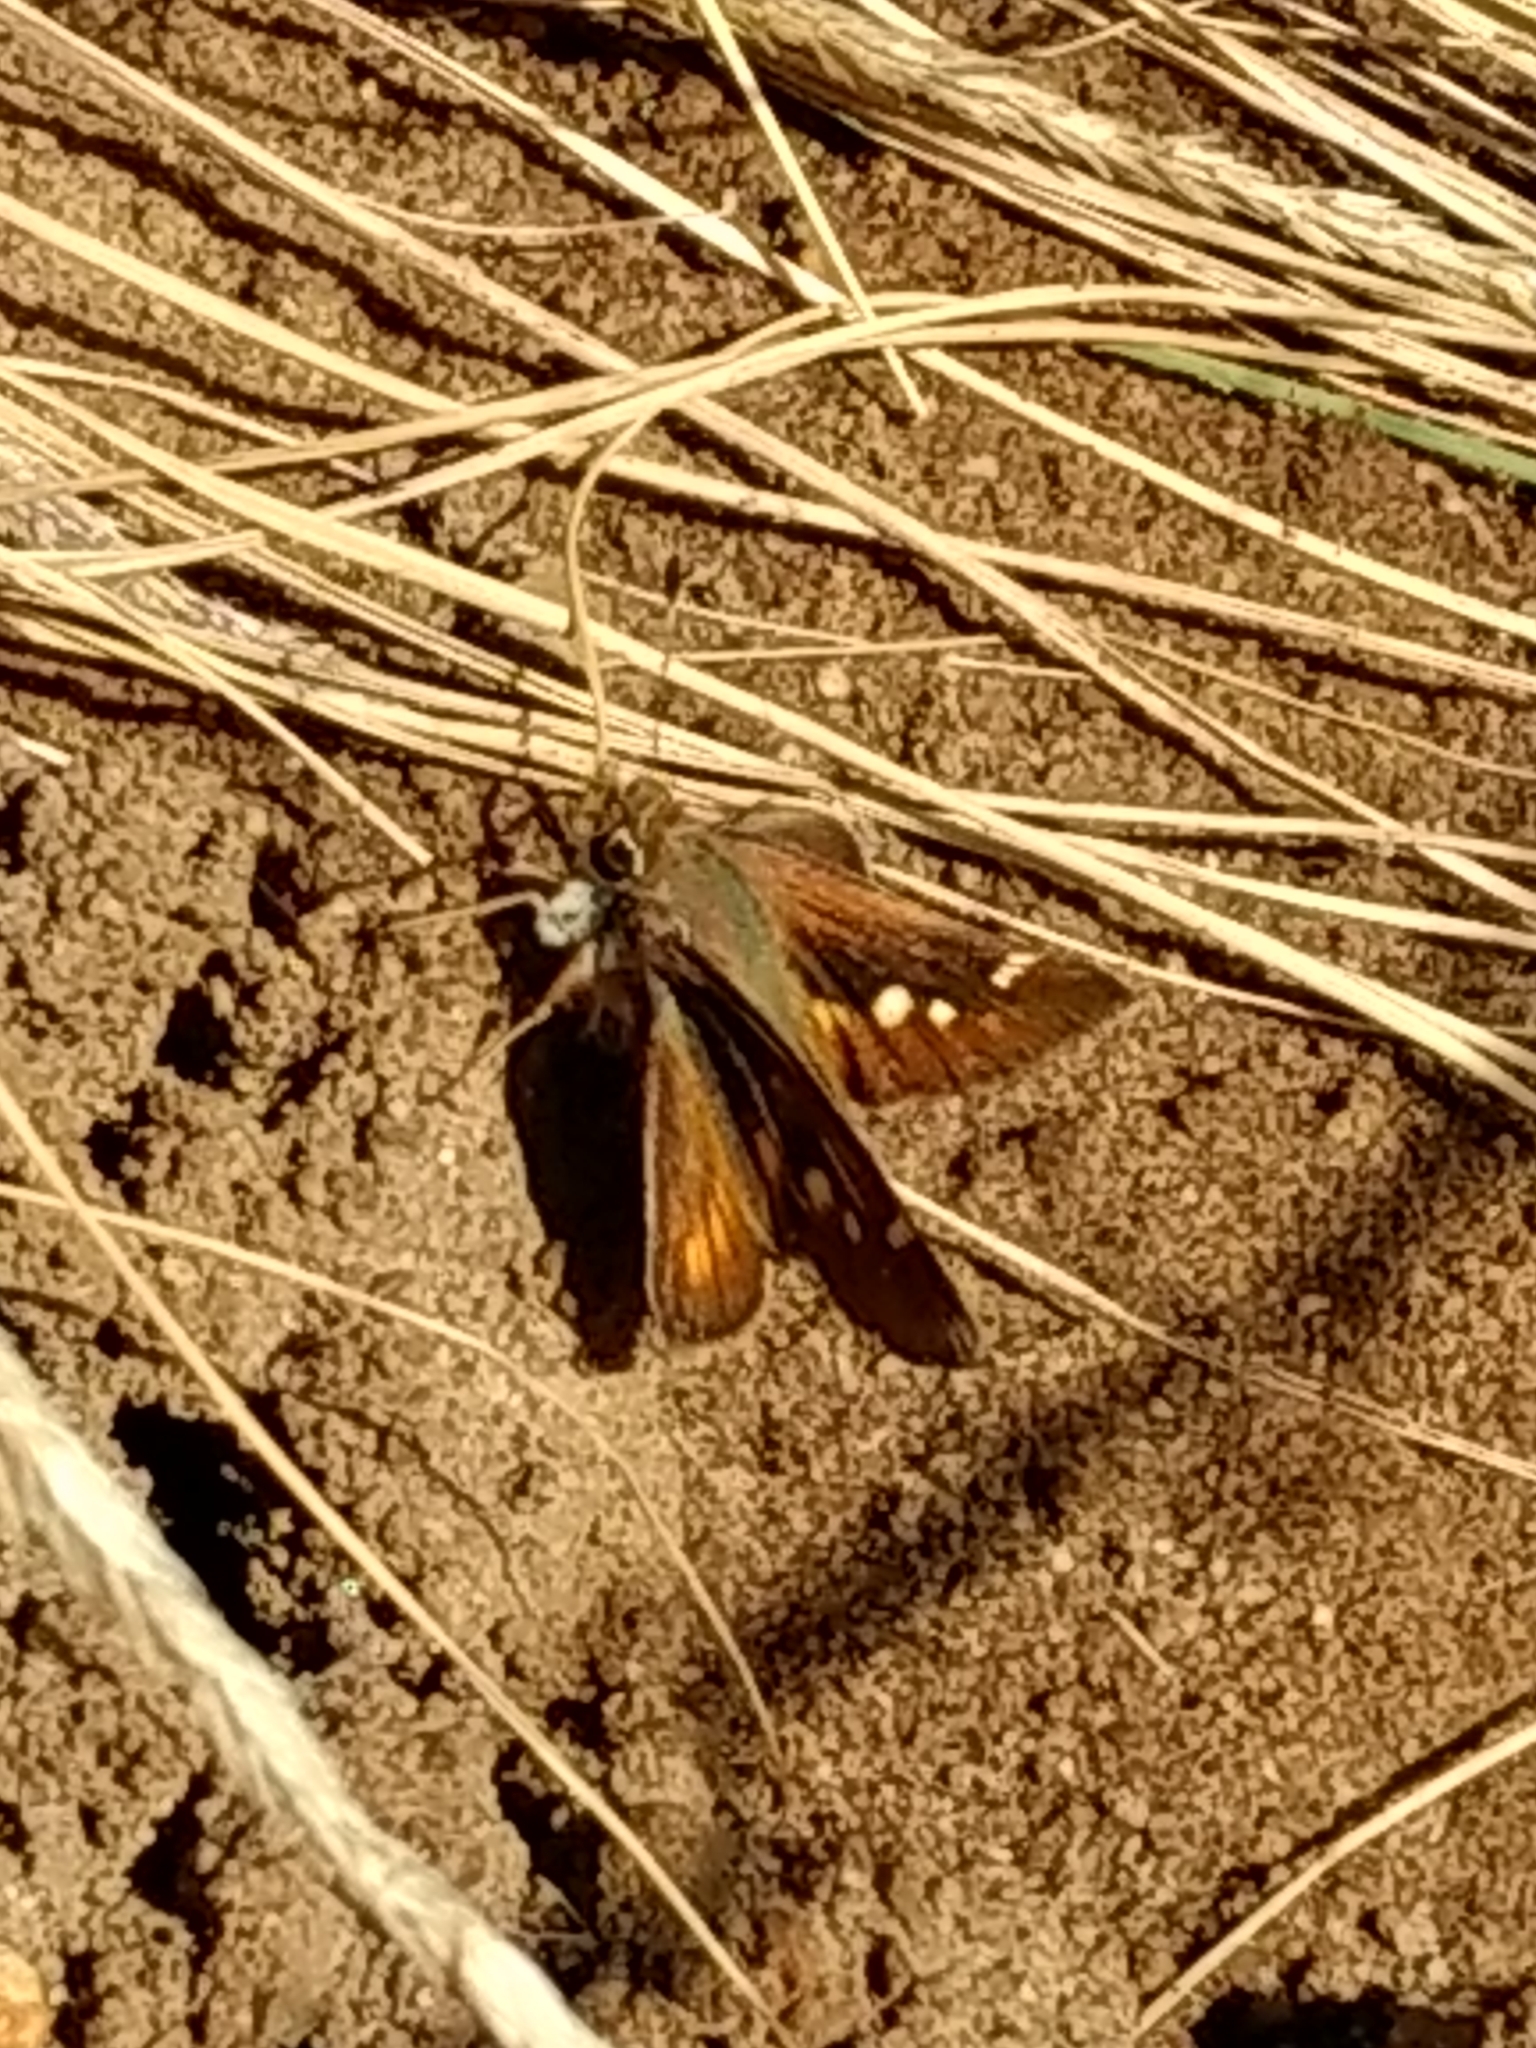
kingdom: Animalia
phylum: Arthropoda
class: Insecta
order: Lepidoptera
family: Hesperiidae
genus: Lon
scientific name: Lon melane
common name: Umber skipper
